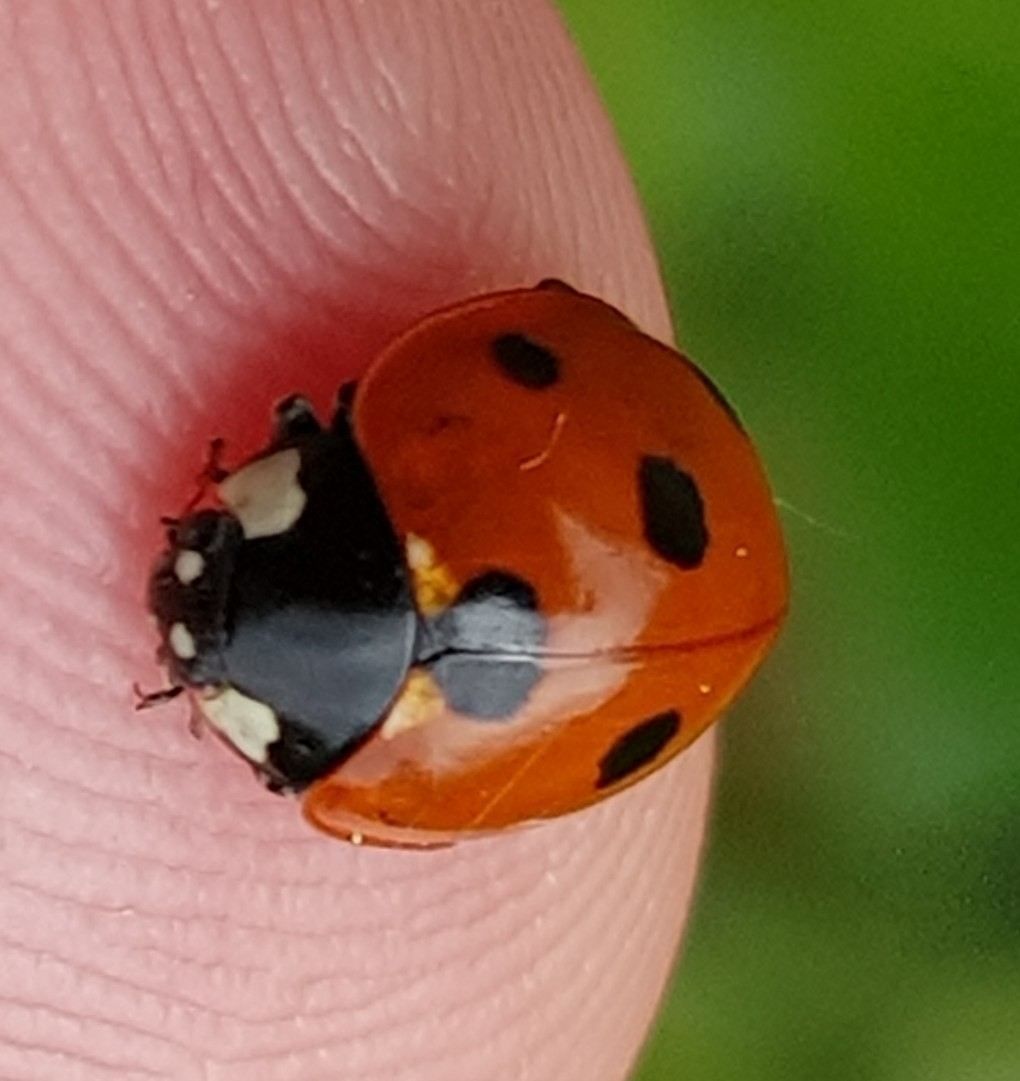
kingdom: Animalia
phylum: Arthropoda
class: Insecta
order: Coleoptera
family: Coccinellidae
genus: Coccinella
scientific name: Coccinella septempunctata
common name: Sevenspotted lady beetle
